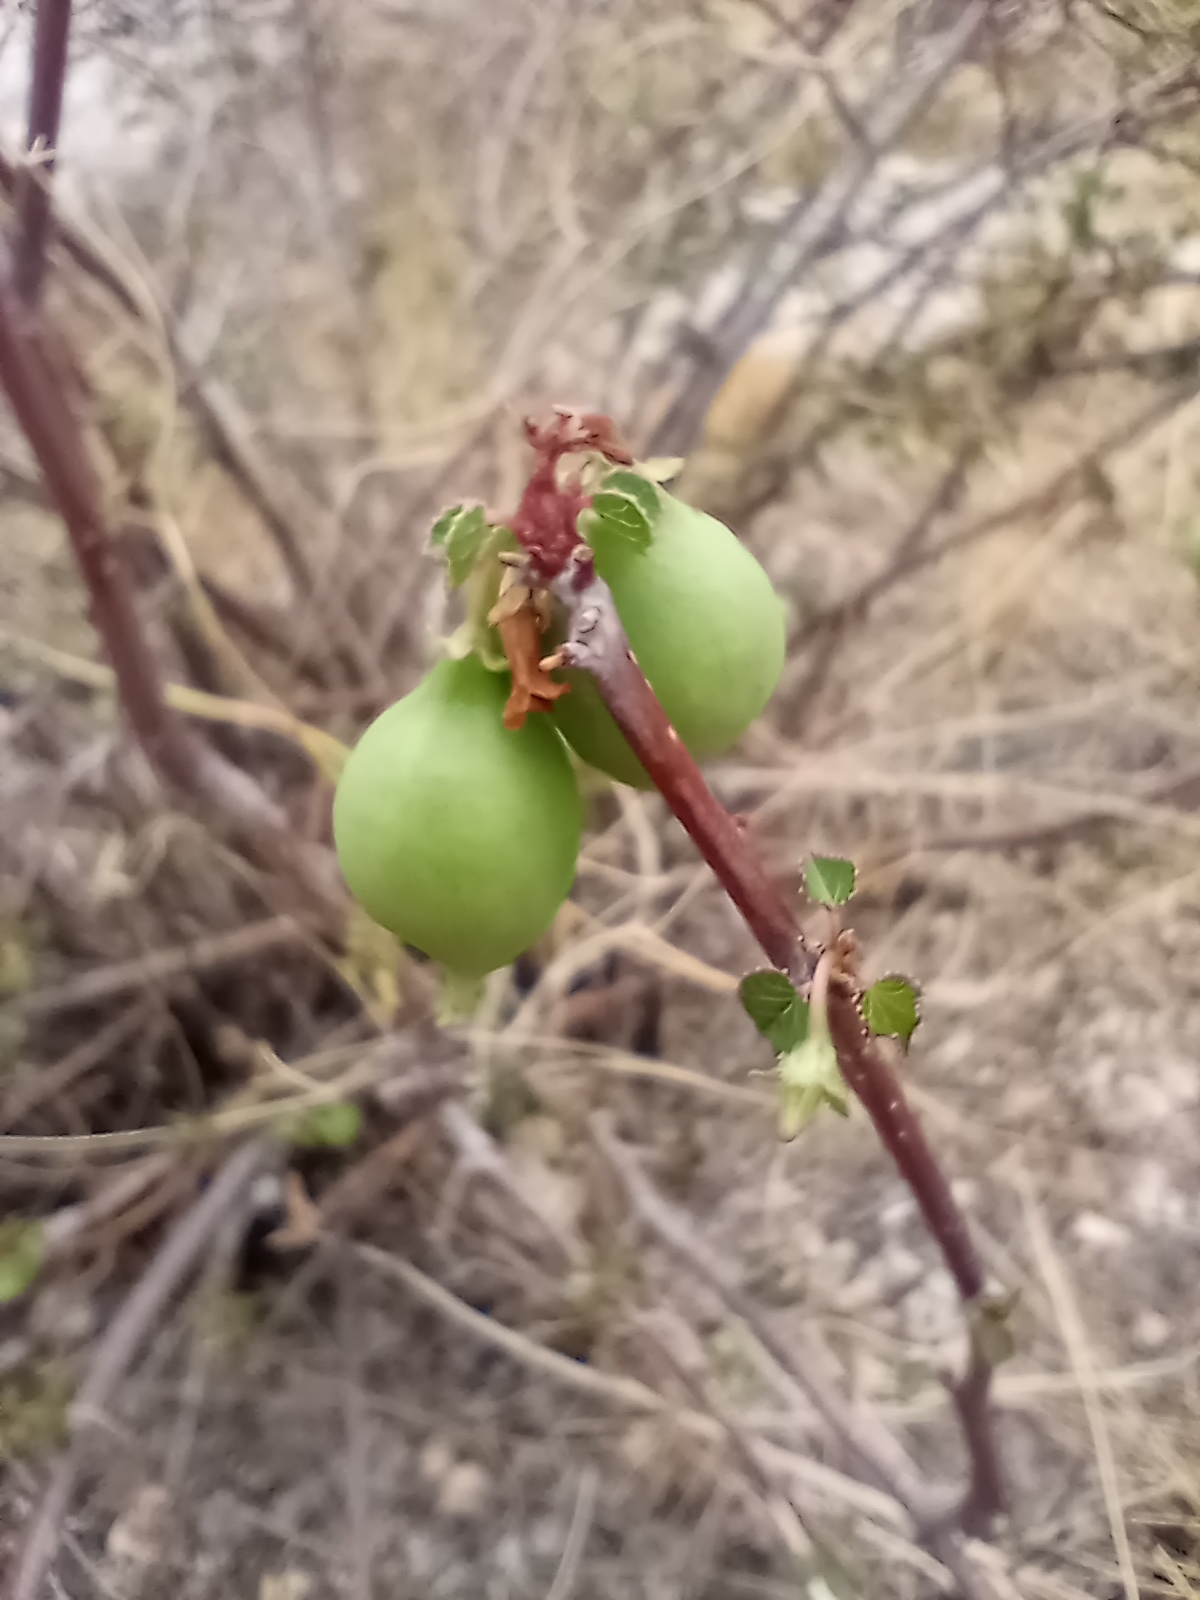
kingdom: Plantae
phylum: Tracheophyta
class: Magnoliopsida
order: Malpighiales
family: Euphorbiaceae
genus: Jatropha
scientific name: Jatropha cardiophylla
